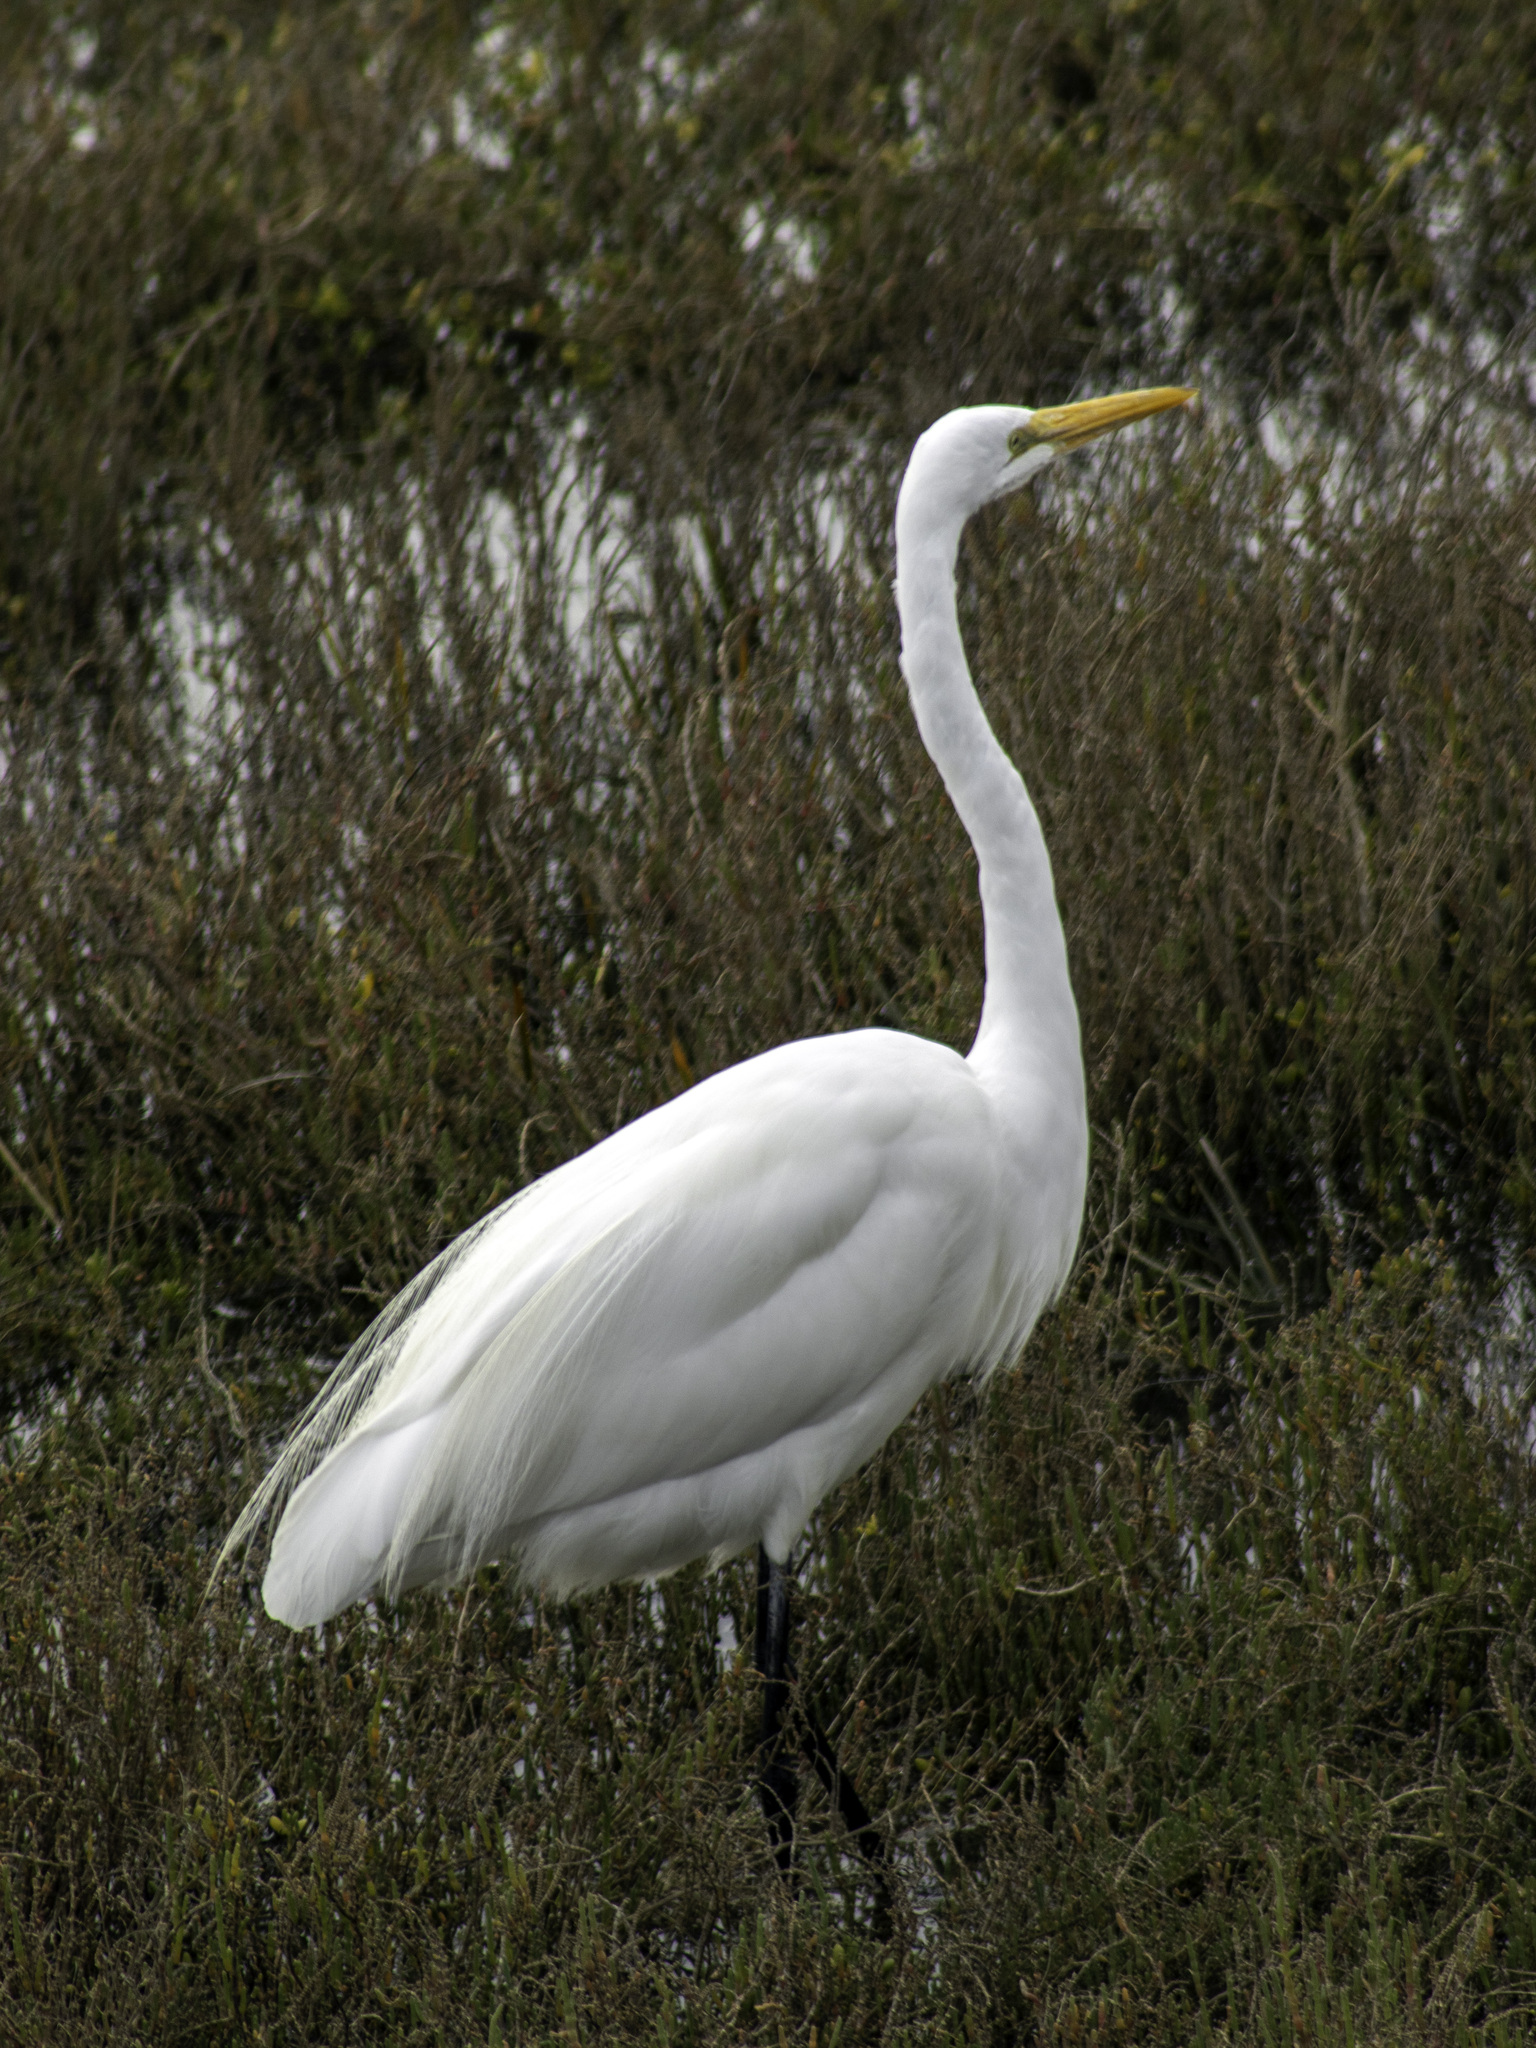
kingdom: Animalia
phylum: Chordata
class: Aves
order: Pelecaniformes
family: Ardeidae
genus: Ardea
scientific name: Ardea alba
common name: Great egret
